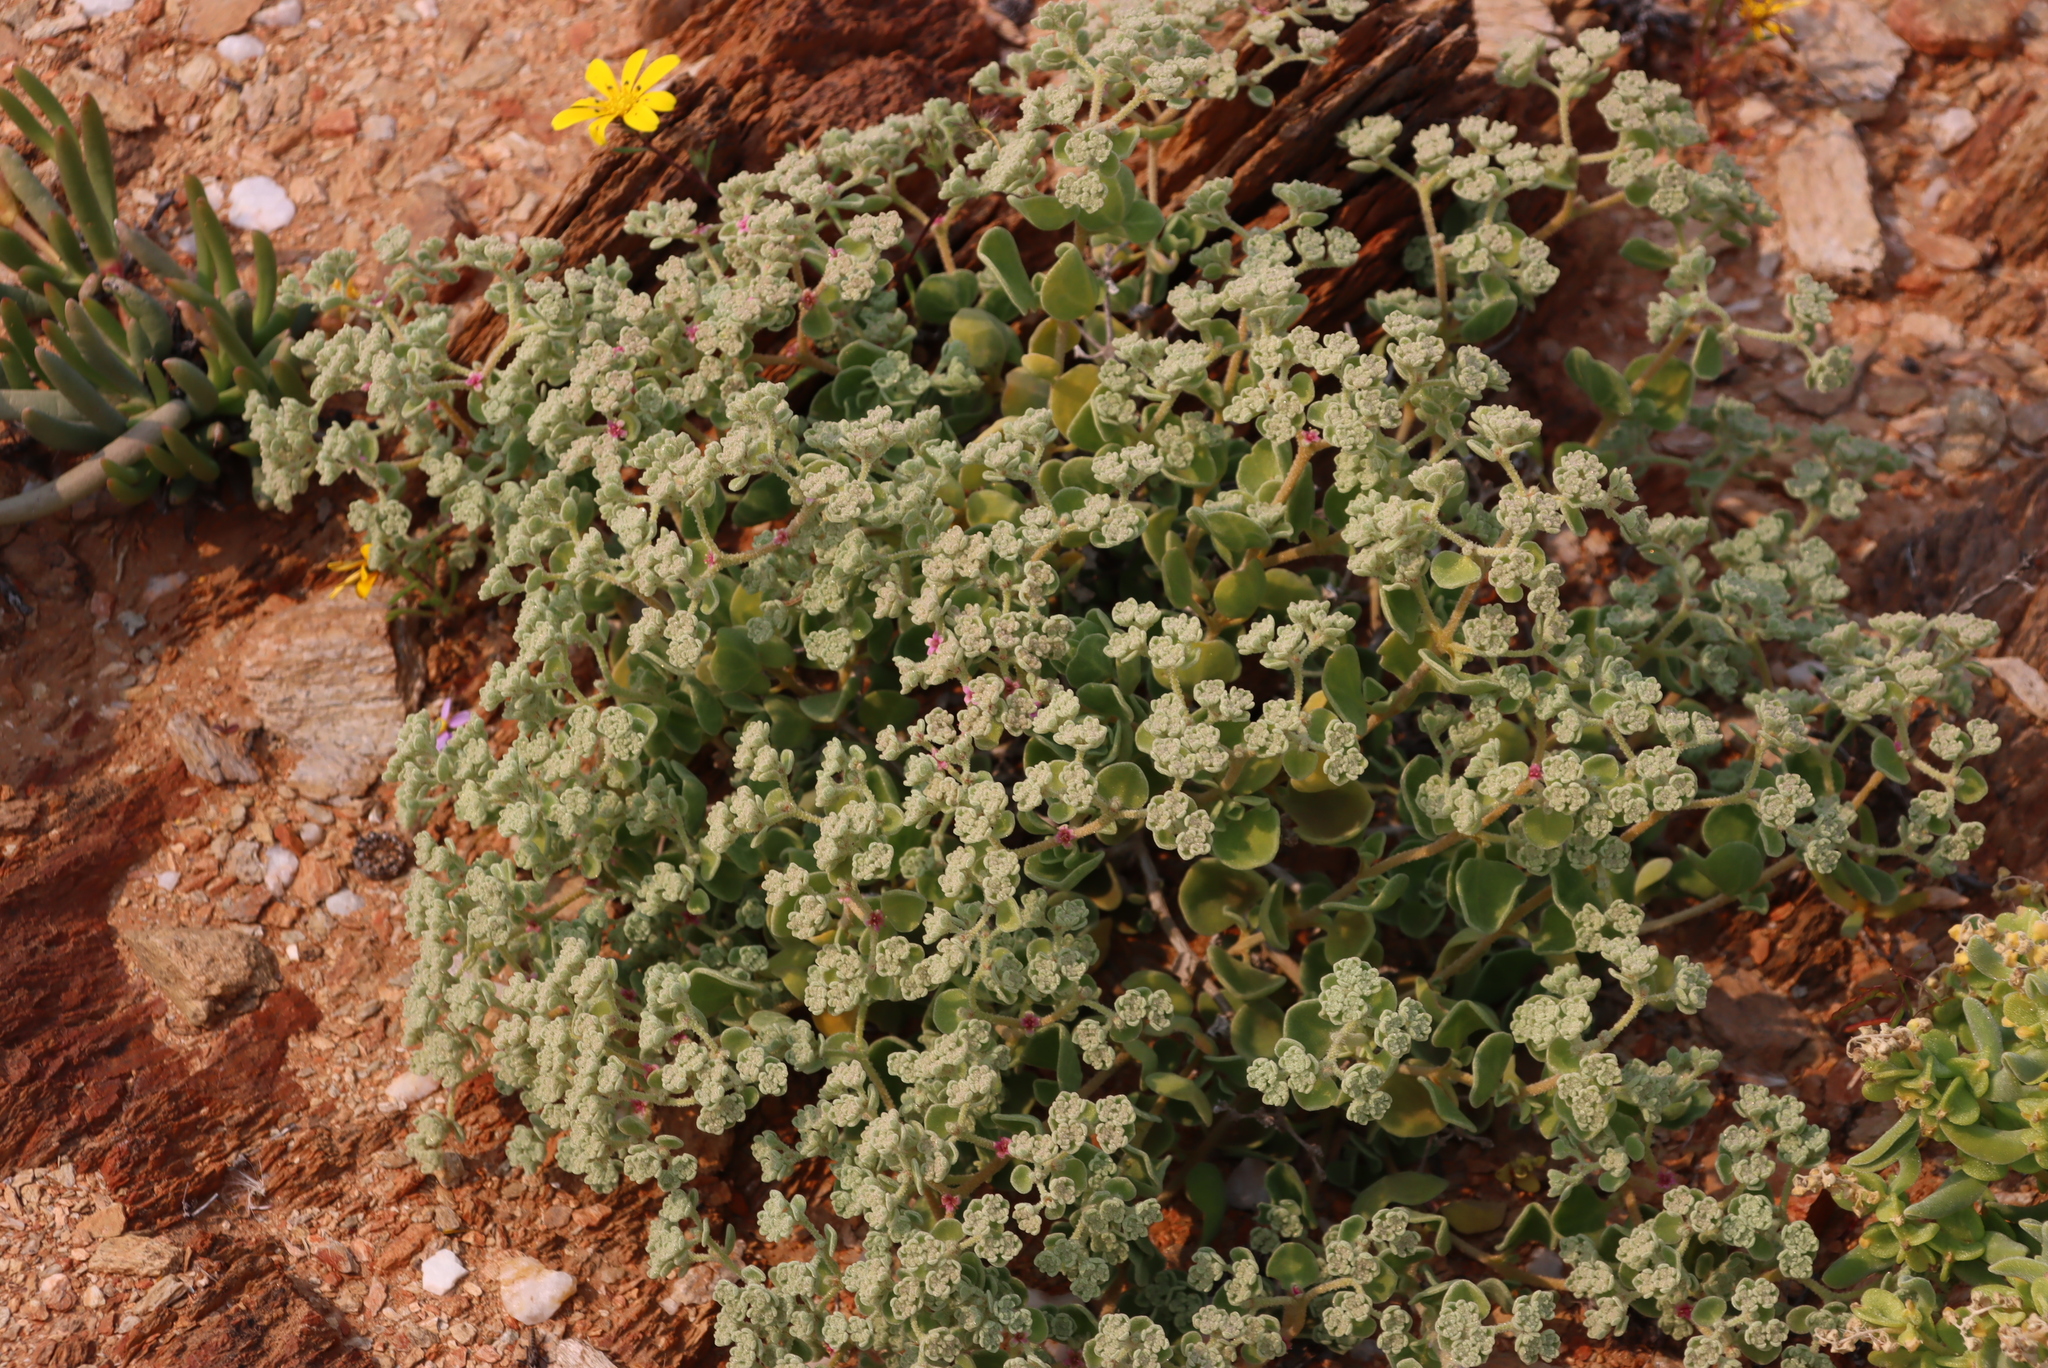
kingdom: Plantae
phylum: Tracheophyta
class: Magnoliopsida
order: Caryophyllales
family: Aizoaceae
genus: Aizoon
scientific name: Aizoon dregeanum
